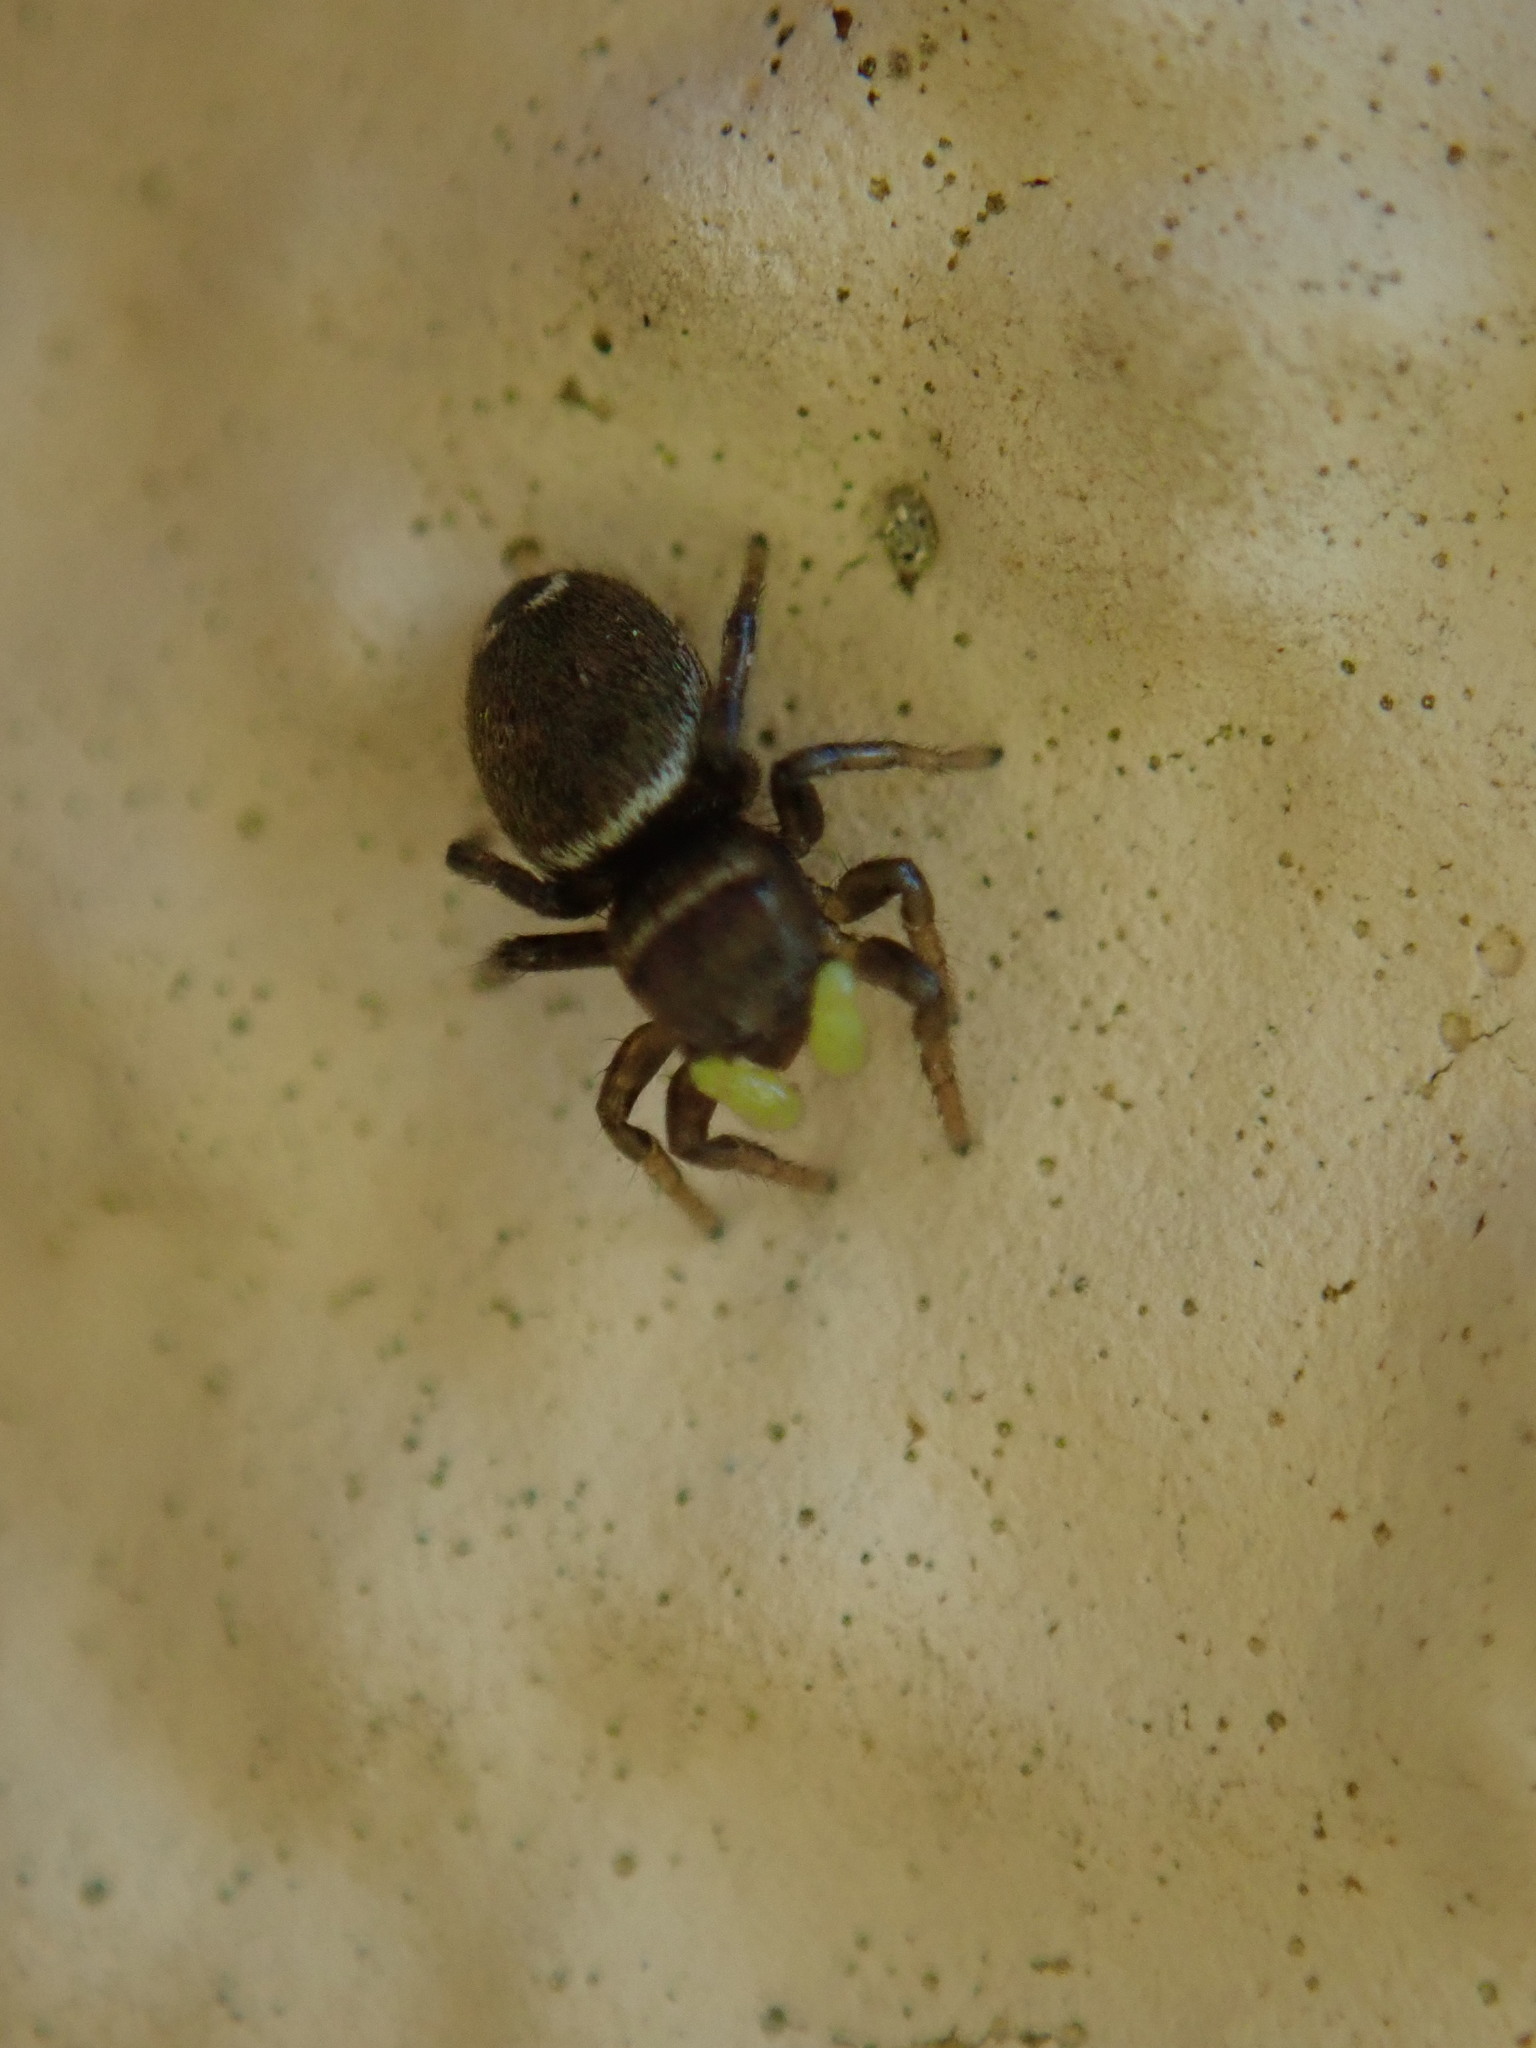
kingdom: Animalia
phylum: Arthropoda
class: Arachnida
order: Araneae
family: Salticidae
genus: Pseudeuophrys
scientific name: Pseudeuophrys erratica
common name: Jumping spider
